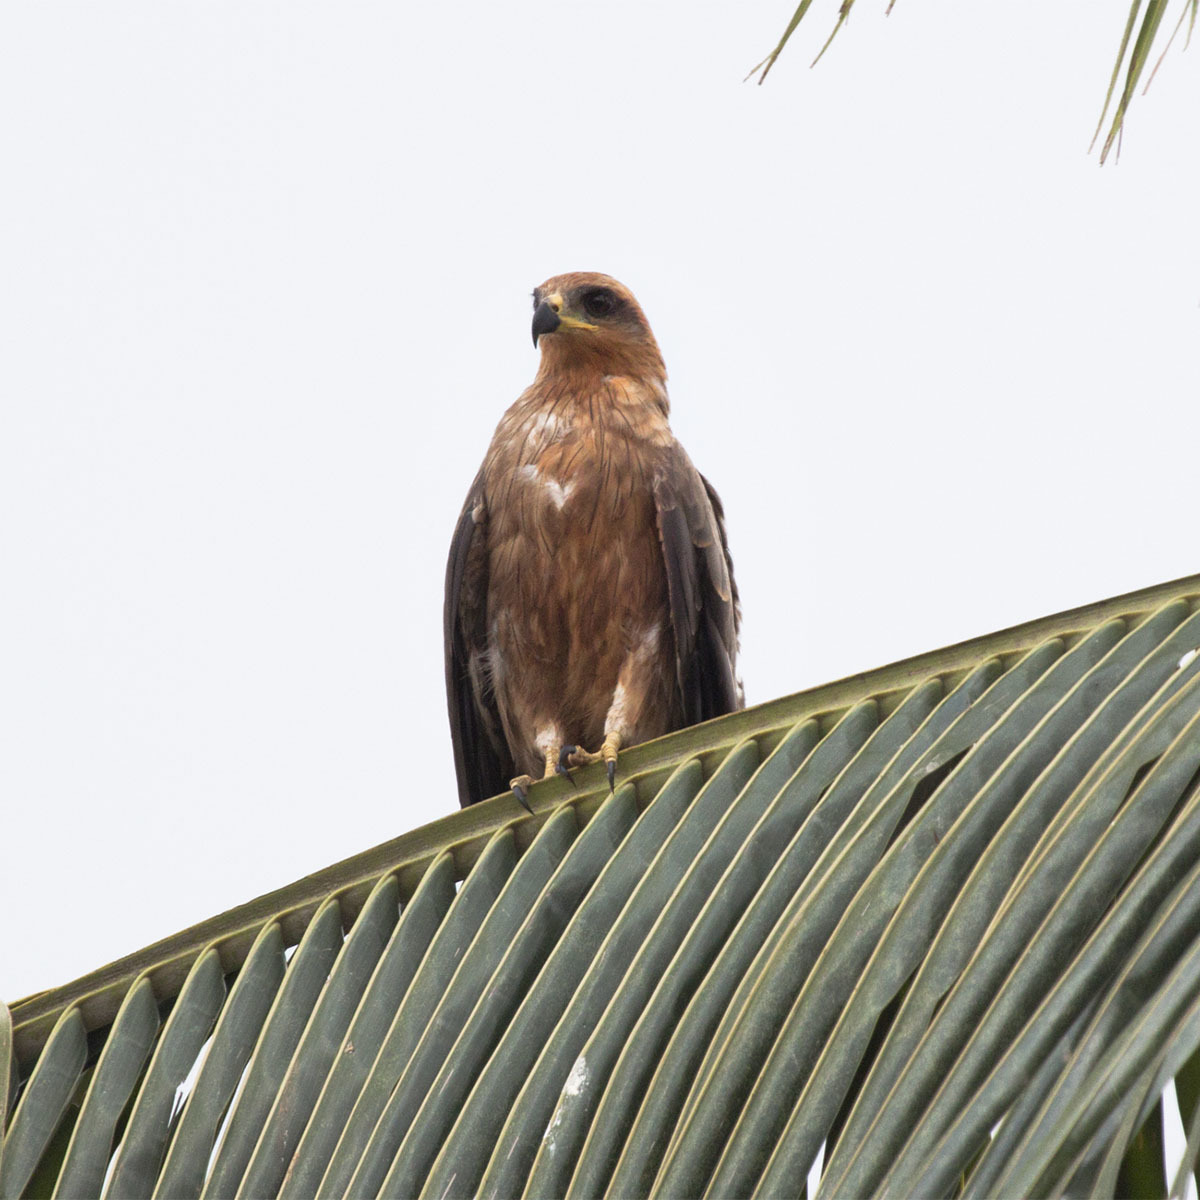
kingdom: Animalia
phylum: Chordata
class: Aves
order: Accipitriformes
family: Accipitridae
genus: Milvus
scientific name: Milvus migrans
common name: Black kite
